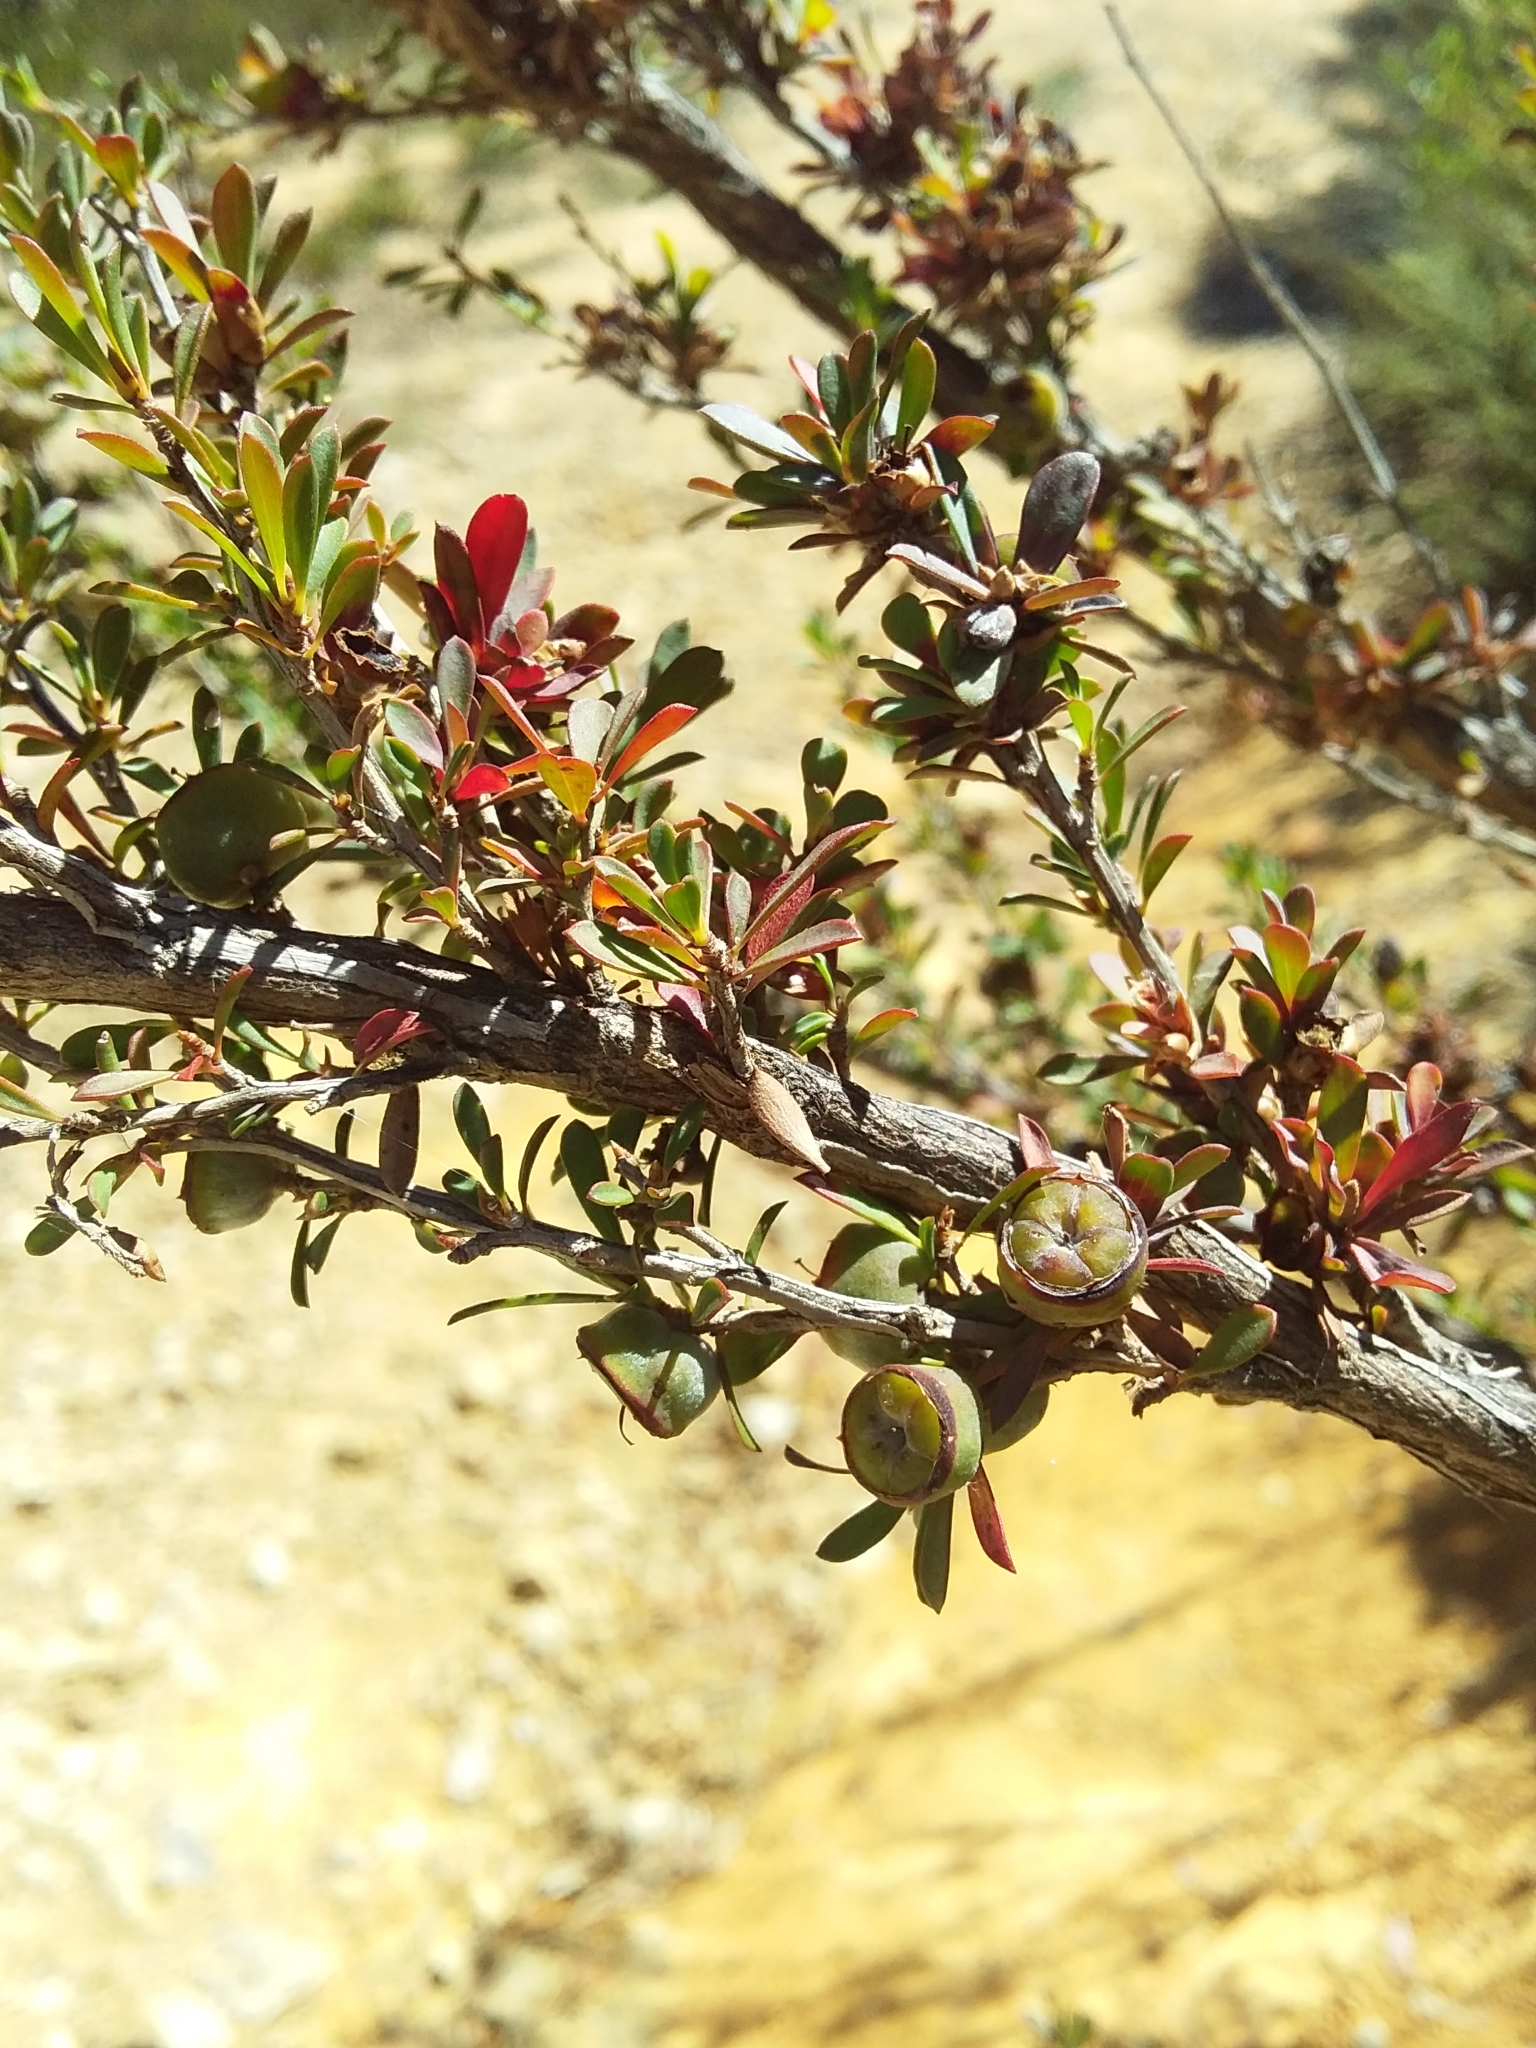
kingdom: Plantae
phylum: Tracheophyta
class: Magnoliopsida
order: Myrtales
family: Myrtaceae
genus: Leptospermum
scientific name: Leptospermum myrsinoides
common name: Heath teatree
